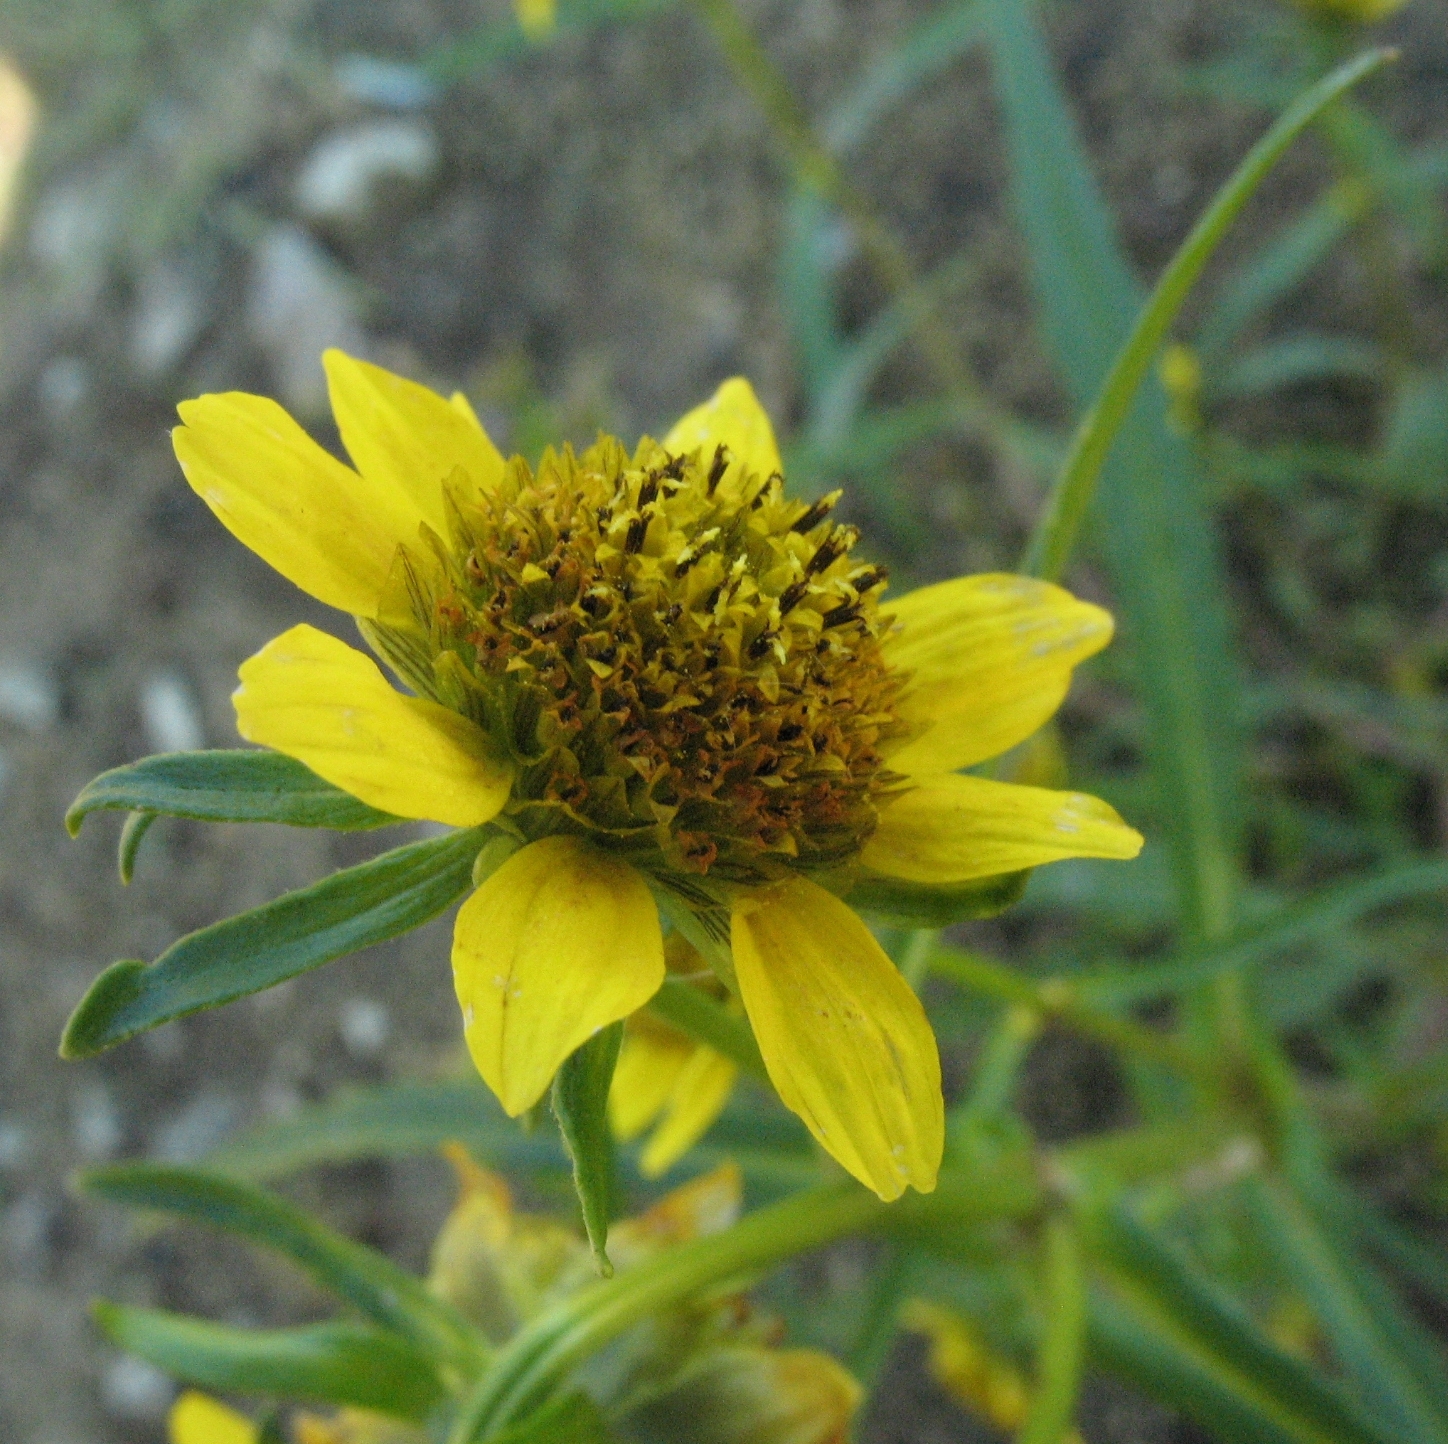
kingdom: Plantae
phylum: Tracheophyta
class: Magnoliopsida
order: Asterales
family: Asteraceae
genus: Bidens
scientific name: Bidens cernua
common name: Nodding bur-marigold
